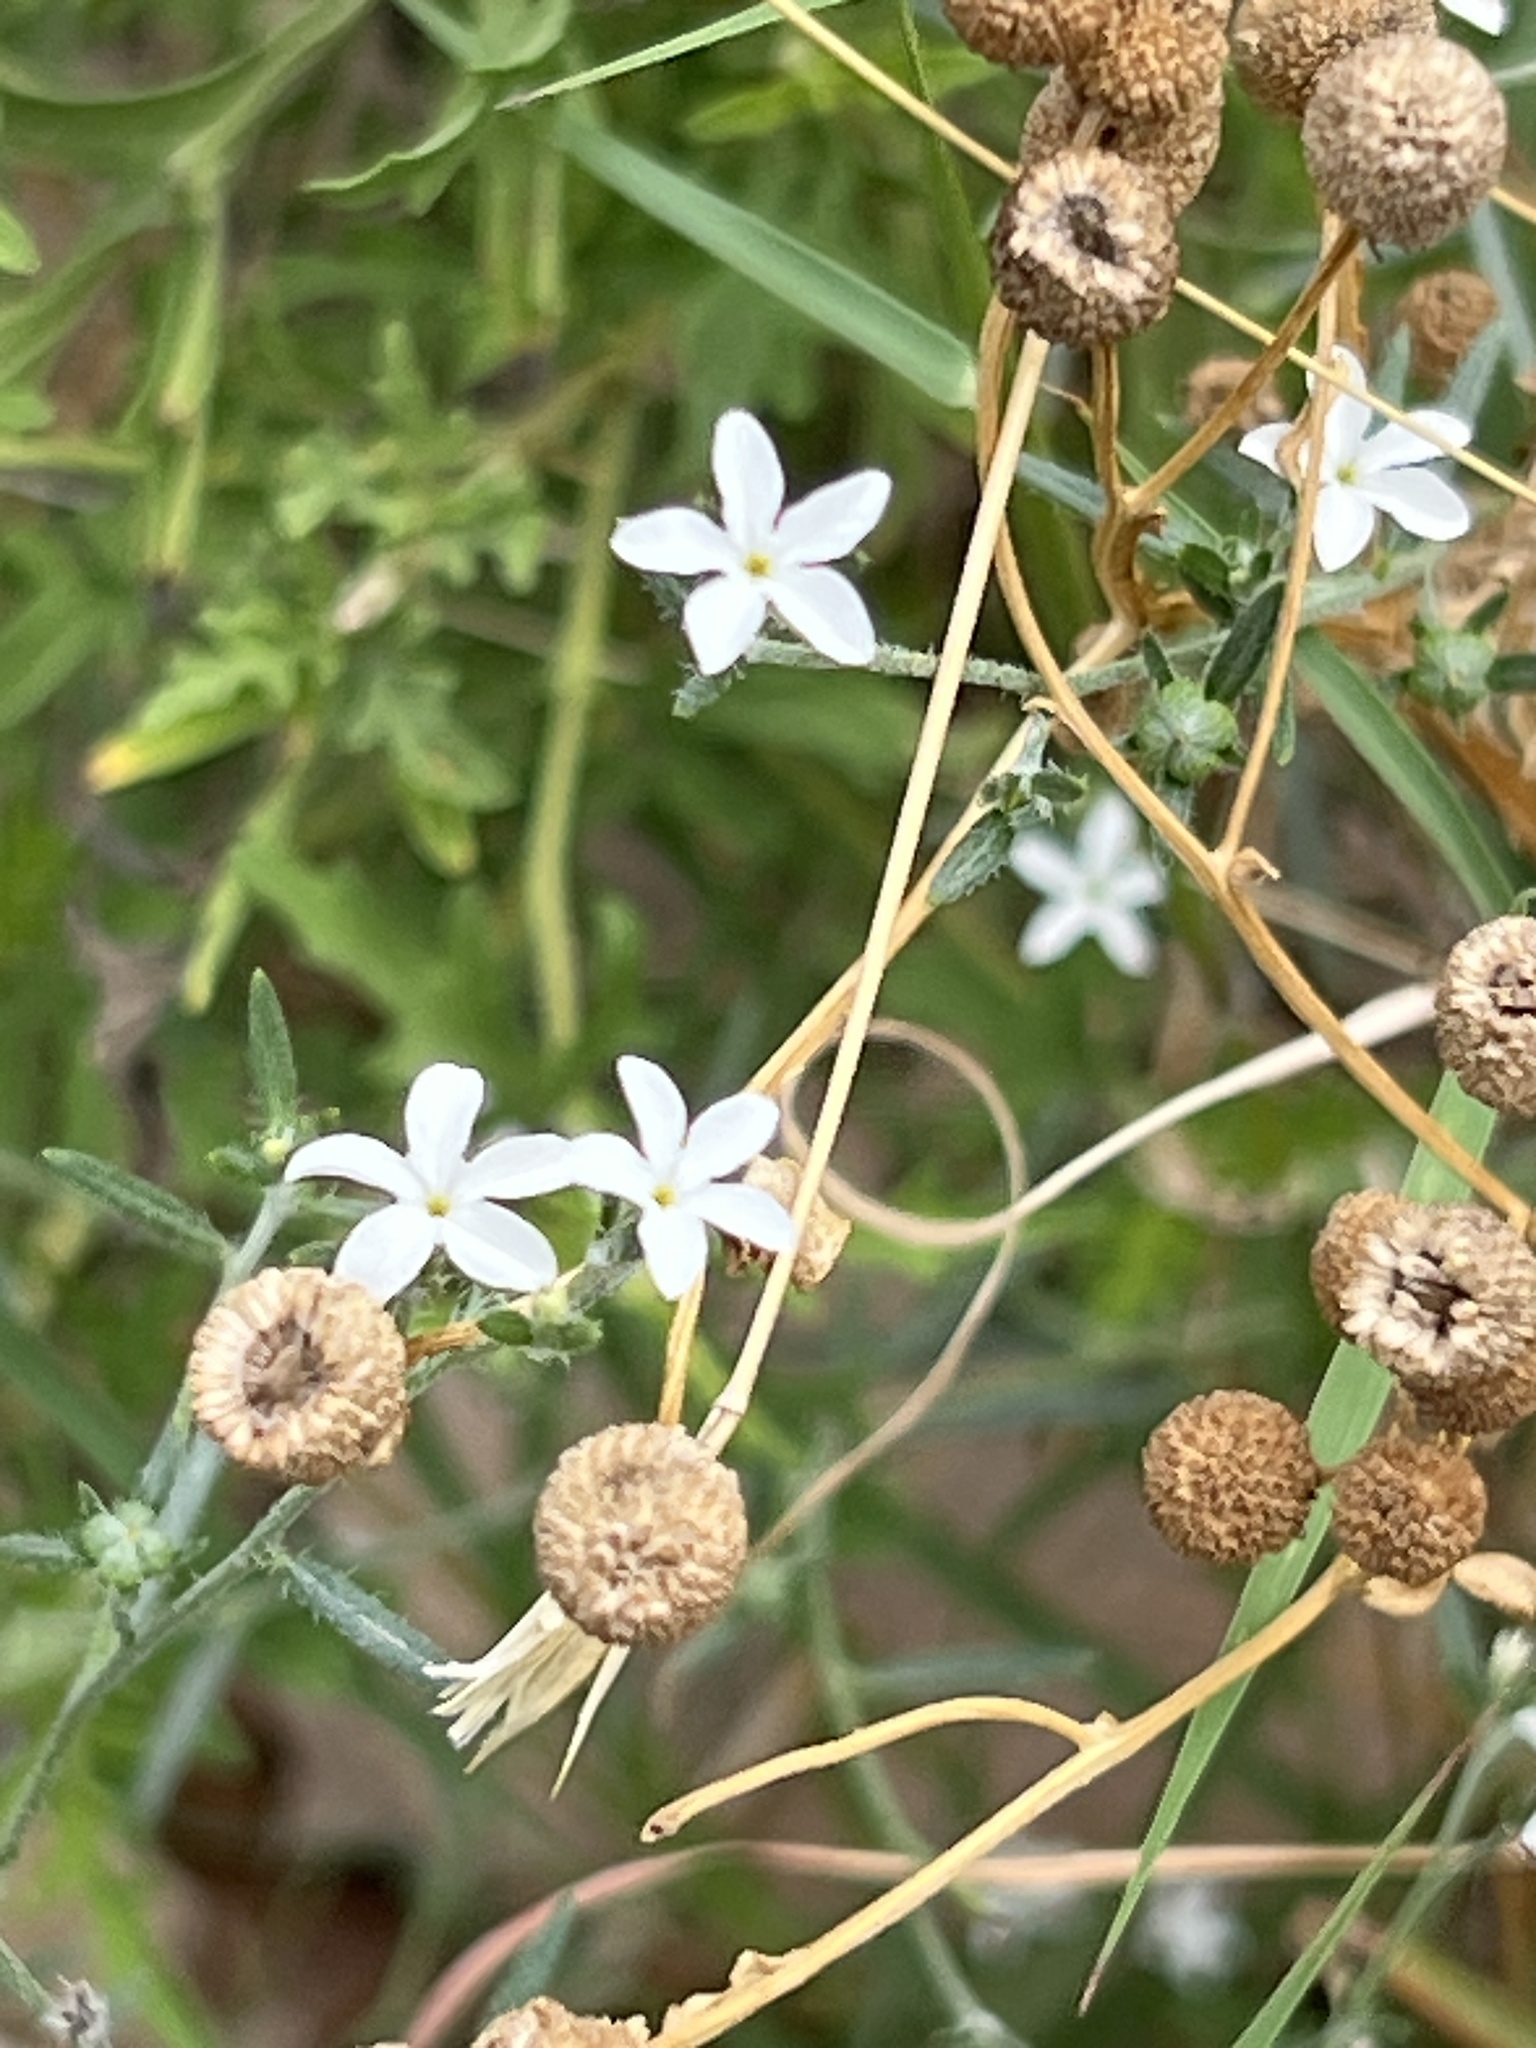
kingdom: Plantae
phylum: Tracheophyta
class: Magnoliopsida
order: Boraginales
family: Heliotropiaceae
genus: Euploca
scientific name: Euploca tenella
